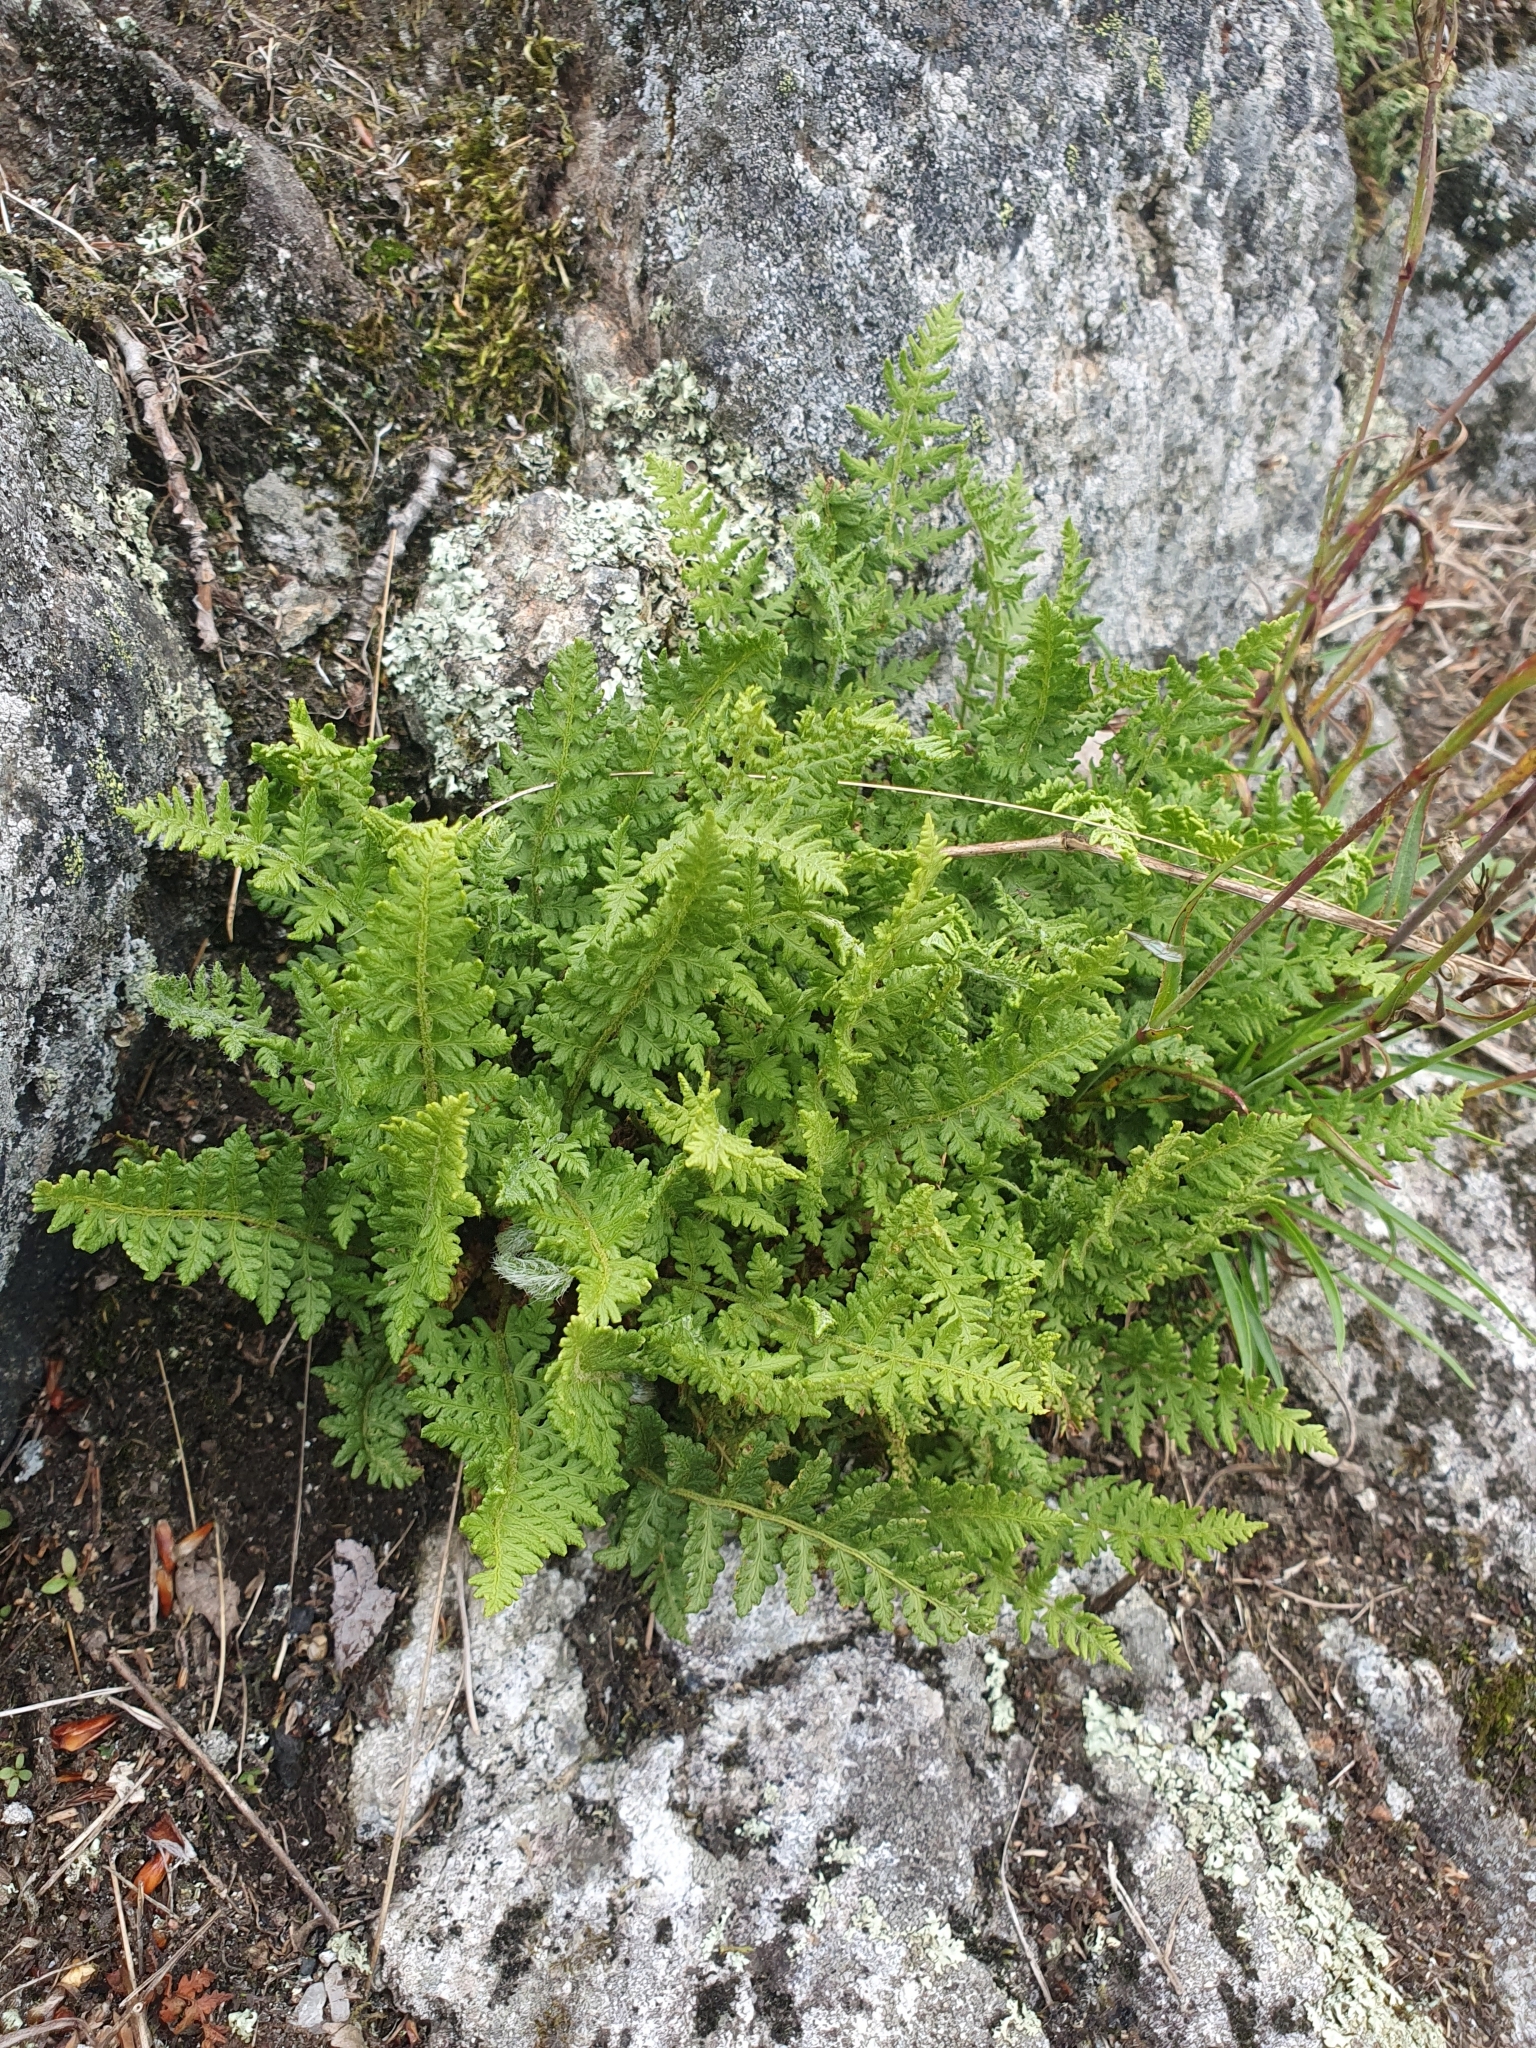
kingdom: Plantae
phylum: Tracheophyta
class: Polypodiopsida
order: Polypodiales
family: Woodsiaceae
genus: Woodsia
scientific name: Woodsia ilvensis
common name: Fragrant woodsia
